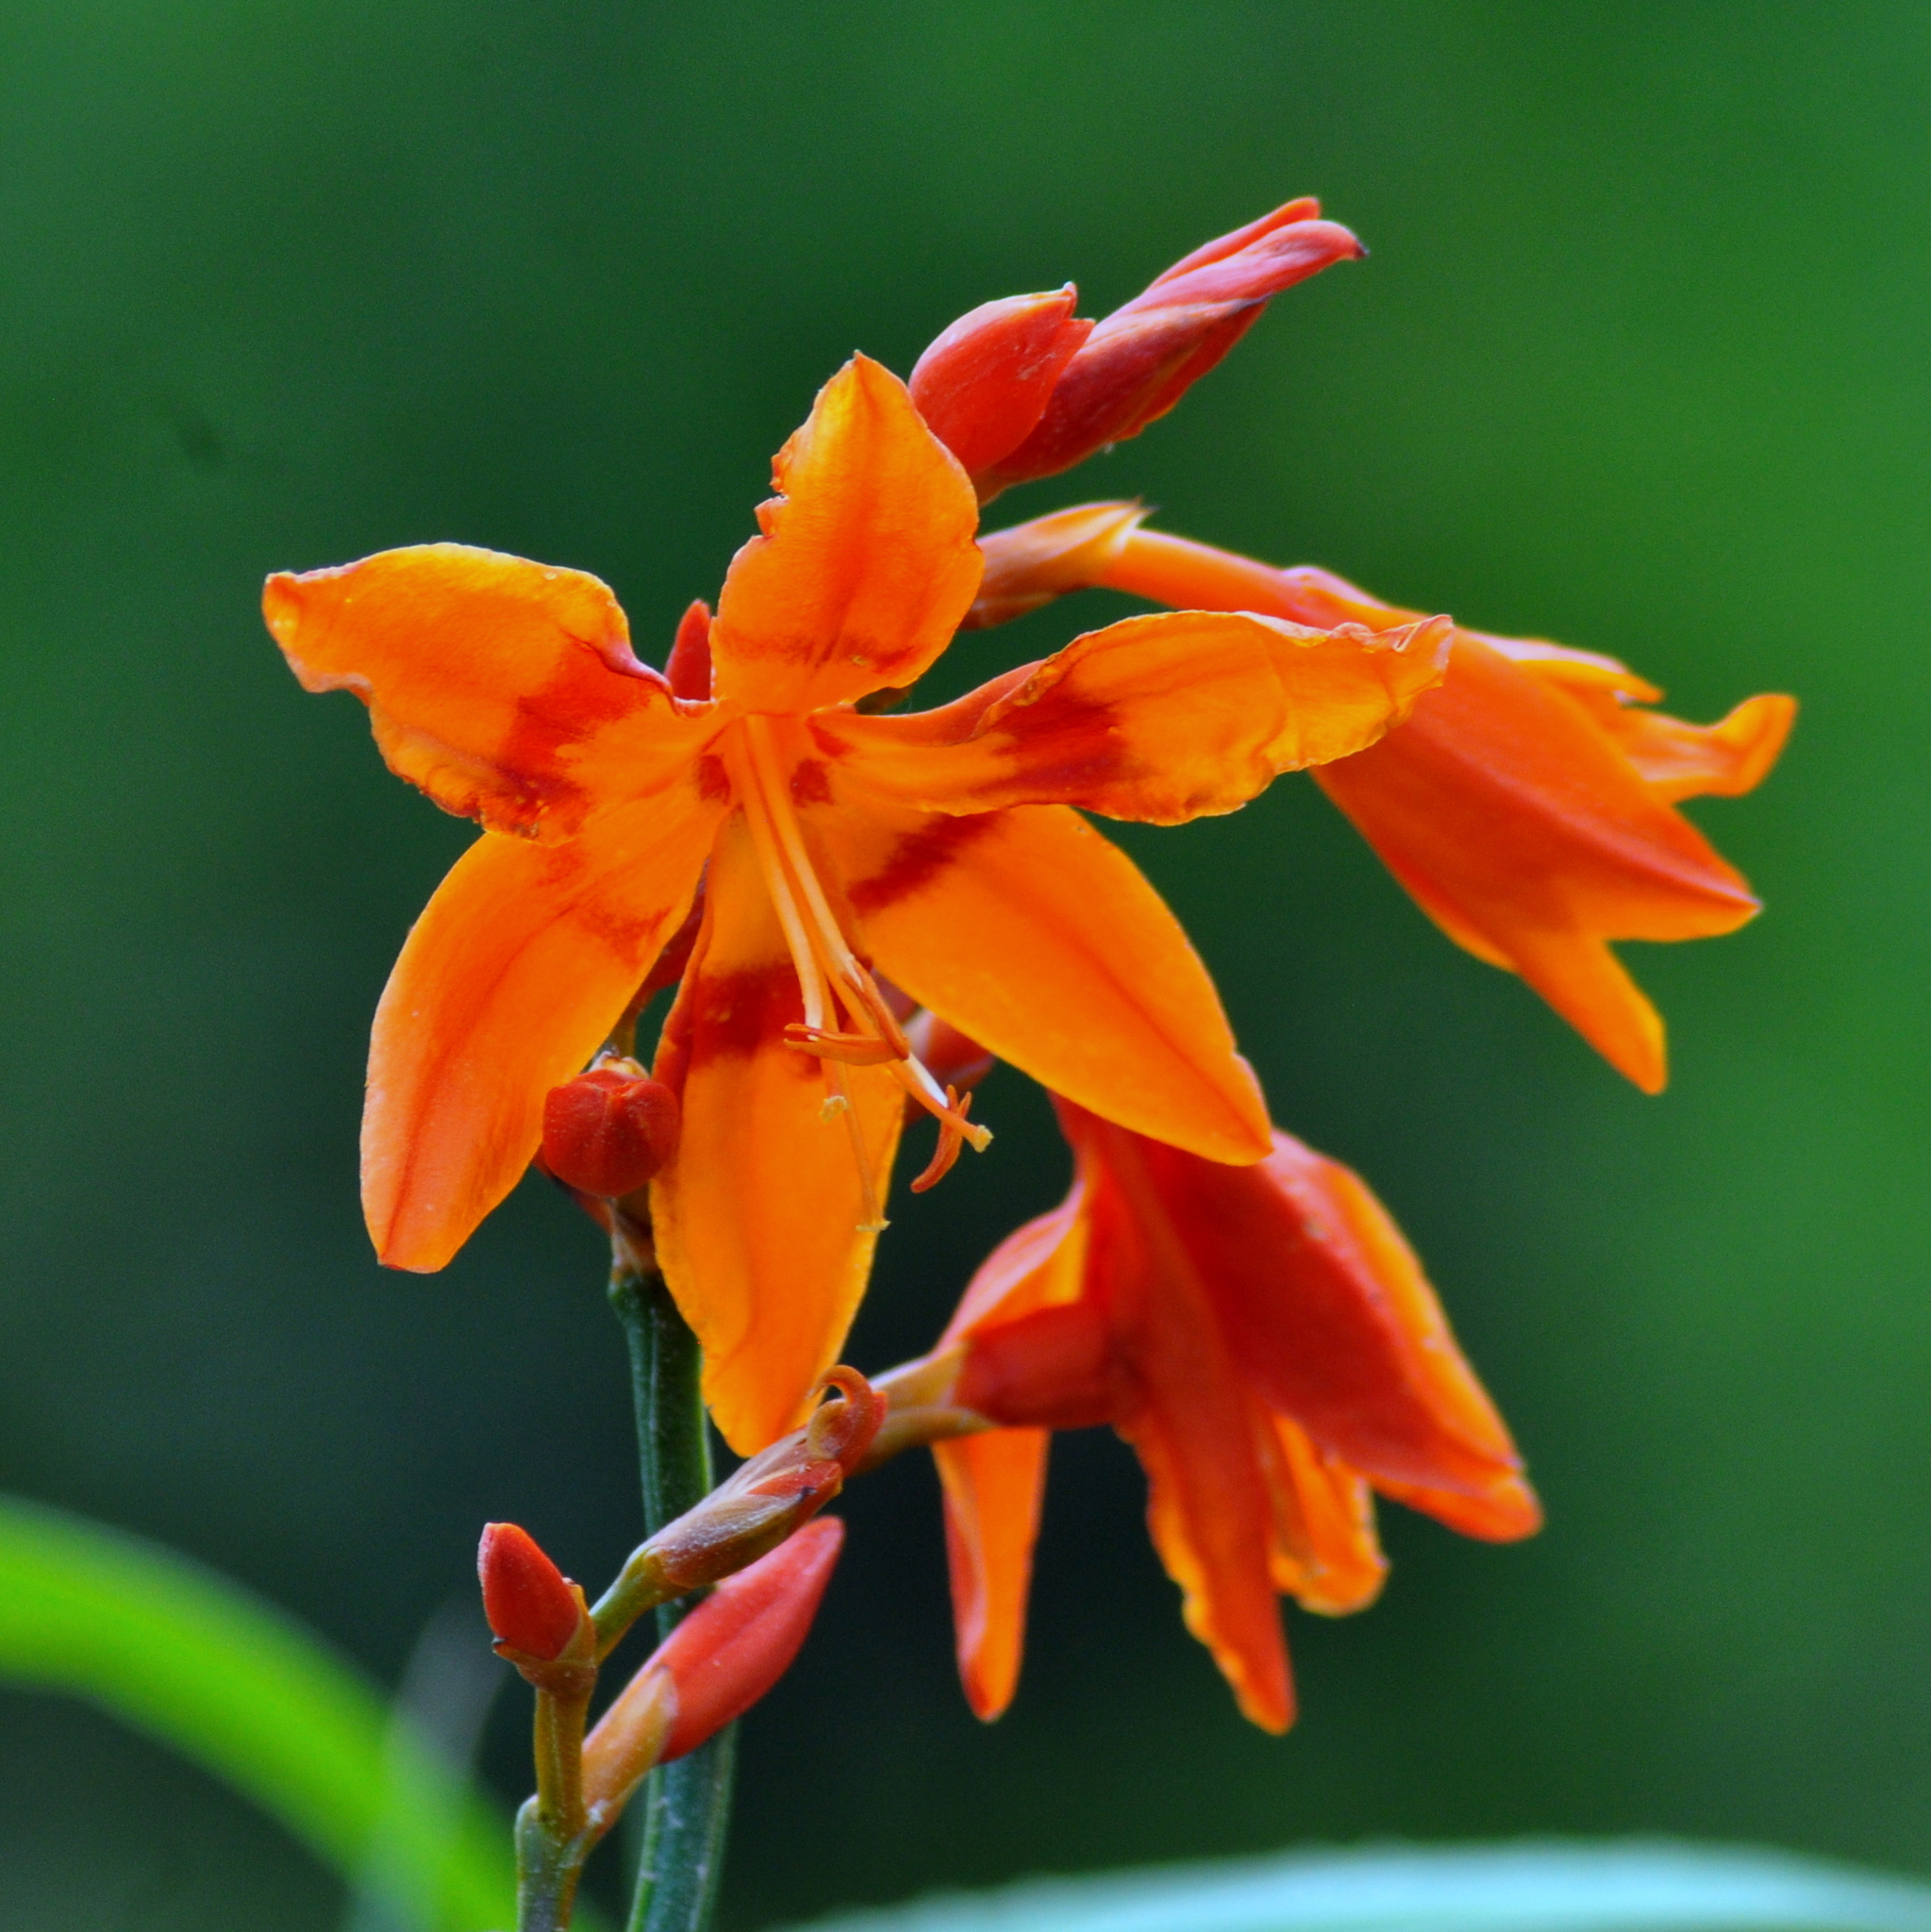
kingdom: Plantae
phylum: Tracheophyta
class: Liliopsida
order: Asparagales
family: Iridaceae
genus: Crocosmia
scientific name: Crocosmia crocosmiiflora
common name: Montbretia
